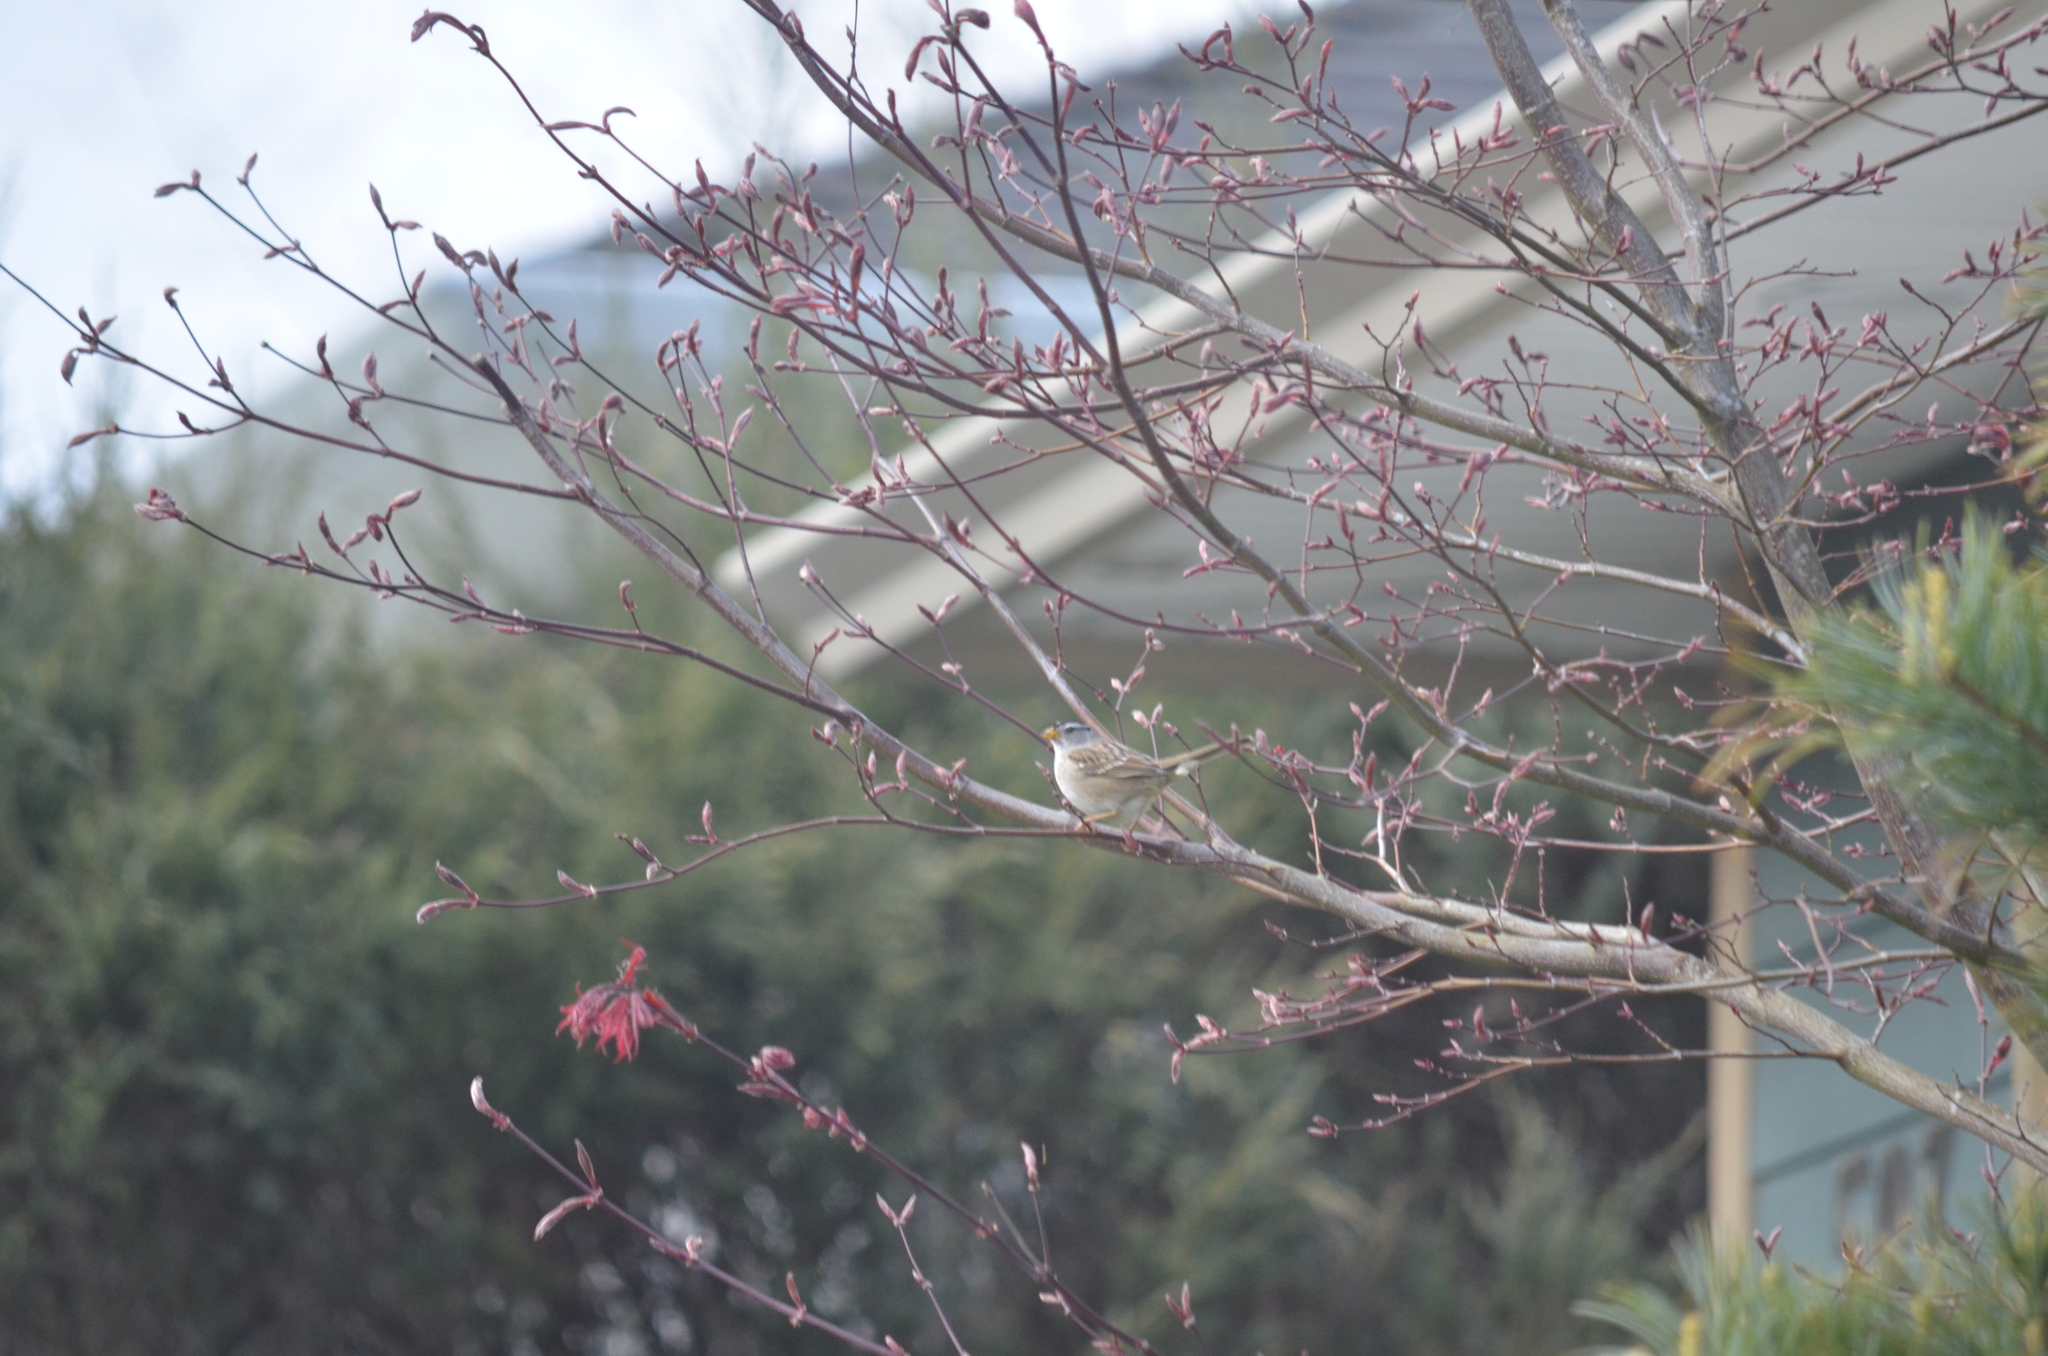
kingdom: Animalia
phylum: Chordata
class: Aves
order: Passeriformes
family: Passerellidae
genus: Zonotrichia
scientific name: Zonotrichia leucophrys
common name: White-crowned sparrow
